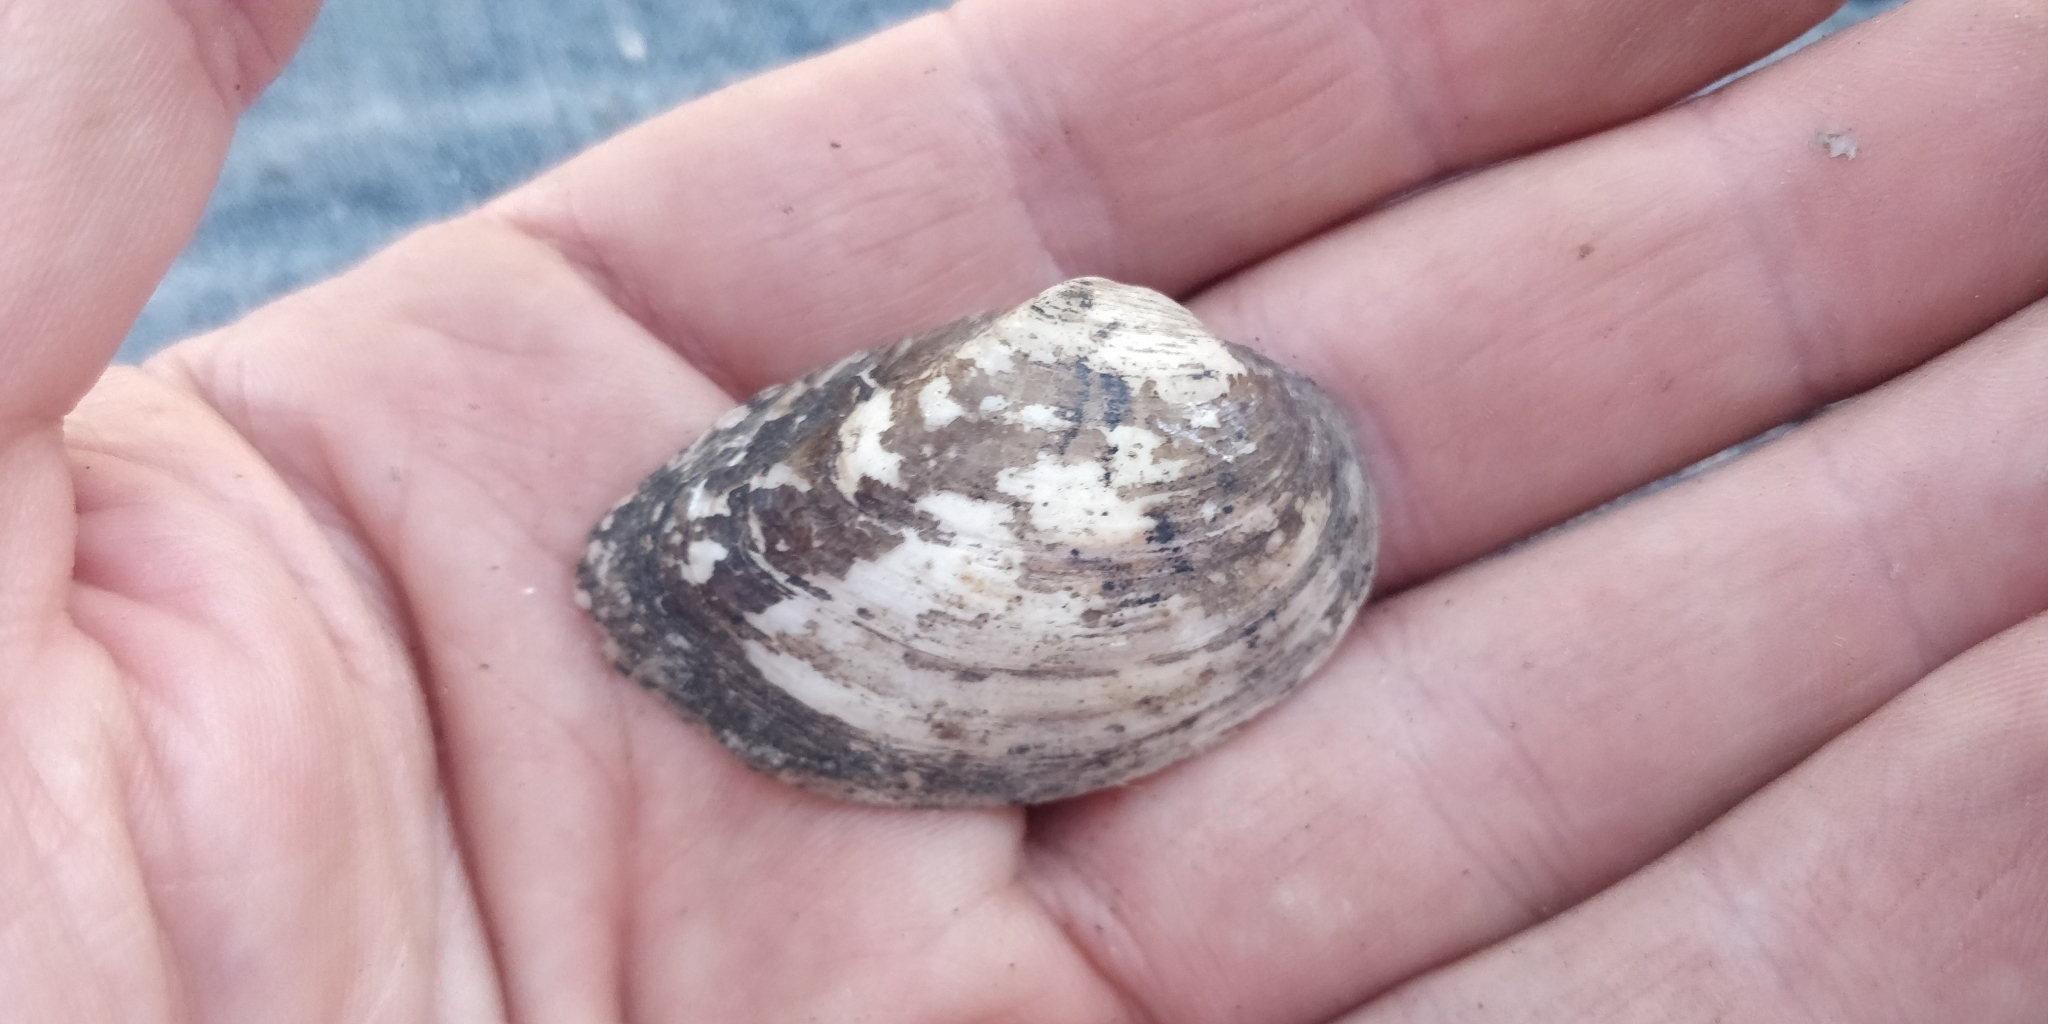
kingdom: Animalia
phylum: Mollusca
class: Bivalvia
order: Unionida
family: Unionidae
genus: Truncilla
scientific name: Truncilla donaciformis
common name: Fawnsfoot
